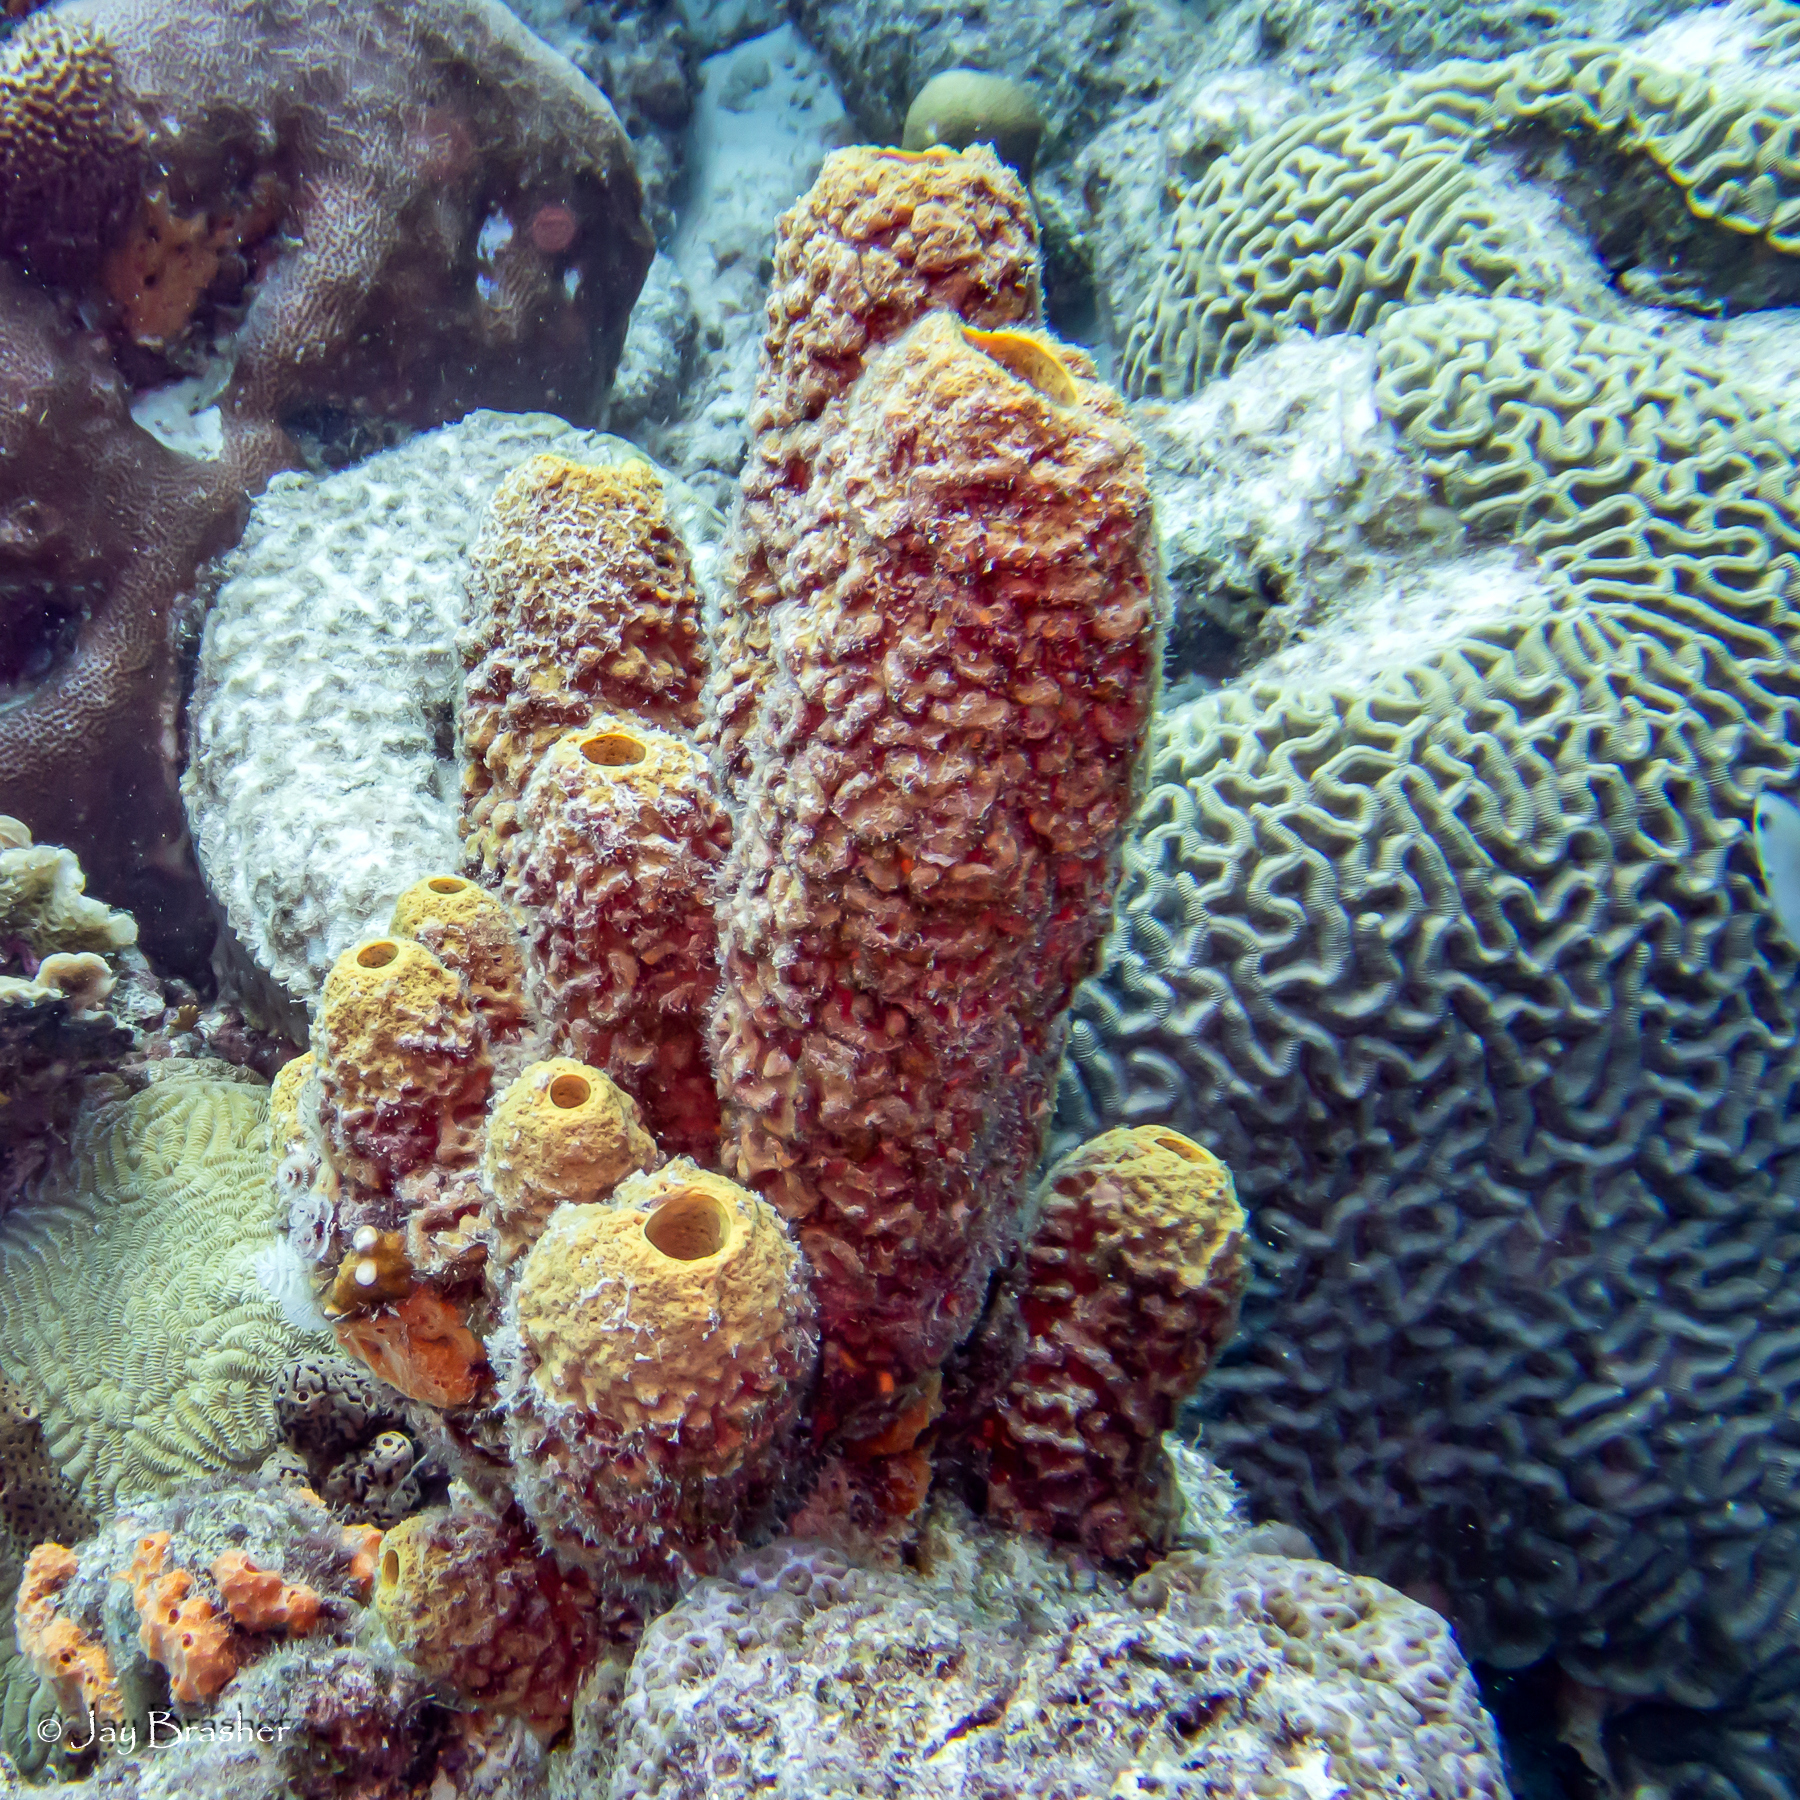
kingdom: Animalia
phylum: Porifera
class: Demospongiae
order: Verongiida
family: Aplysinidae
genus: Aplysina
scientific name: Aplysina archeri
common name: Stove-pipe sponge
